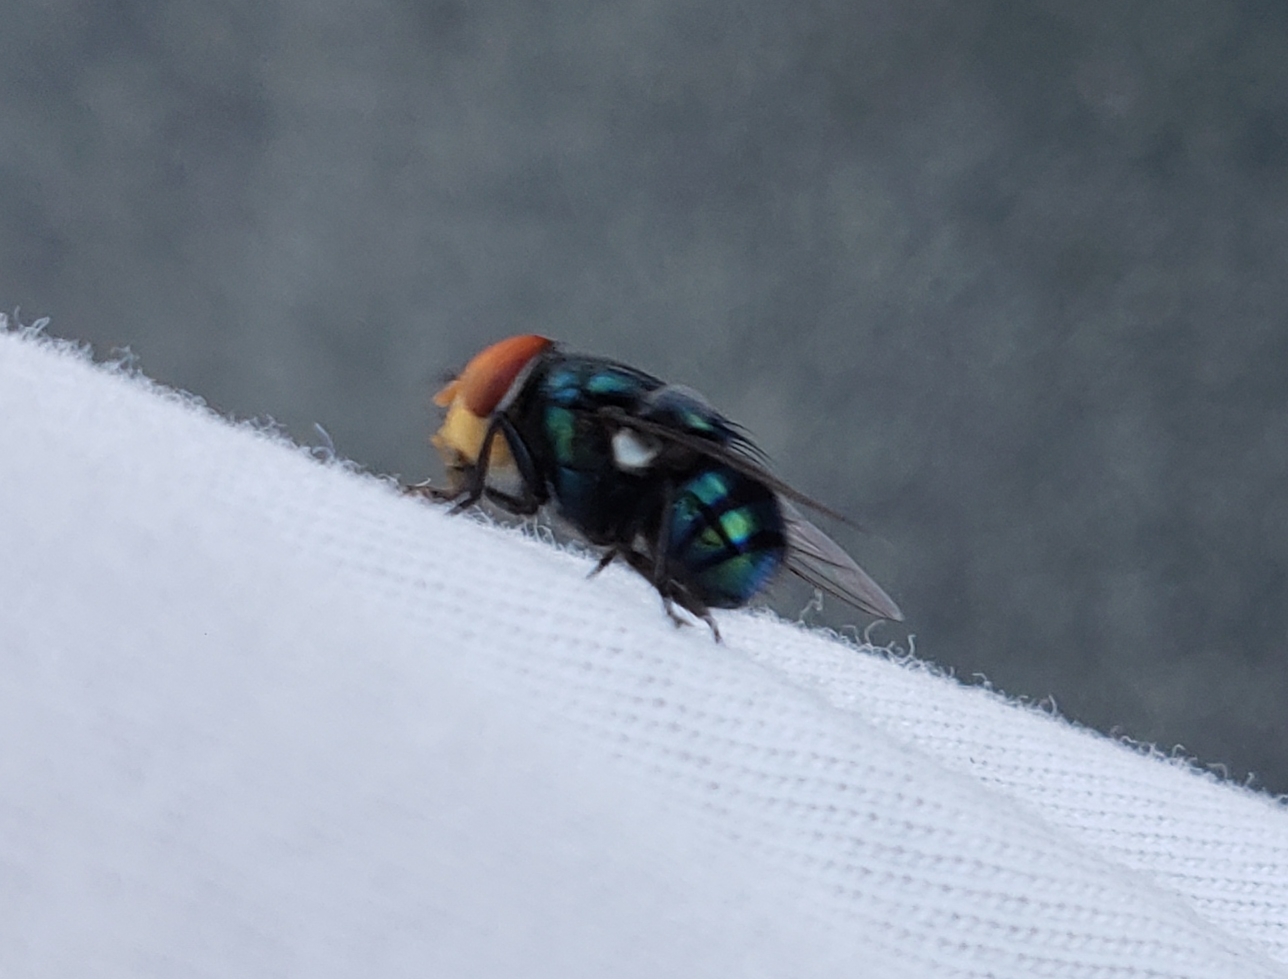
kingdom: Animalia
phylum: Arthropoda
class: Insecta
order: Diptera
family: Calliphoridae
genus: Chrysomya
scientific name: Chrysomya megacephala
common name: Blow fly
